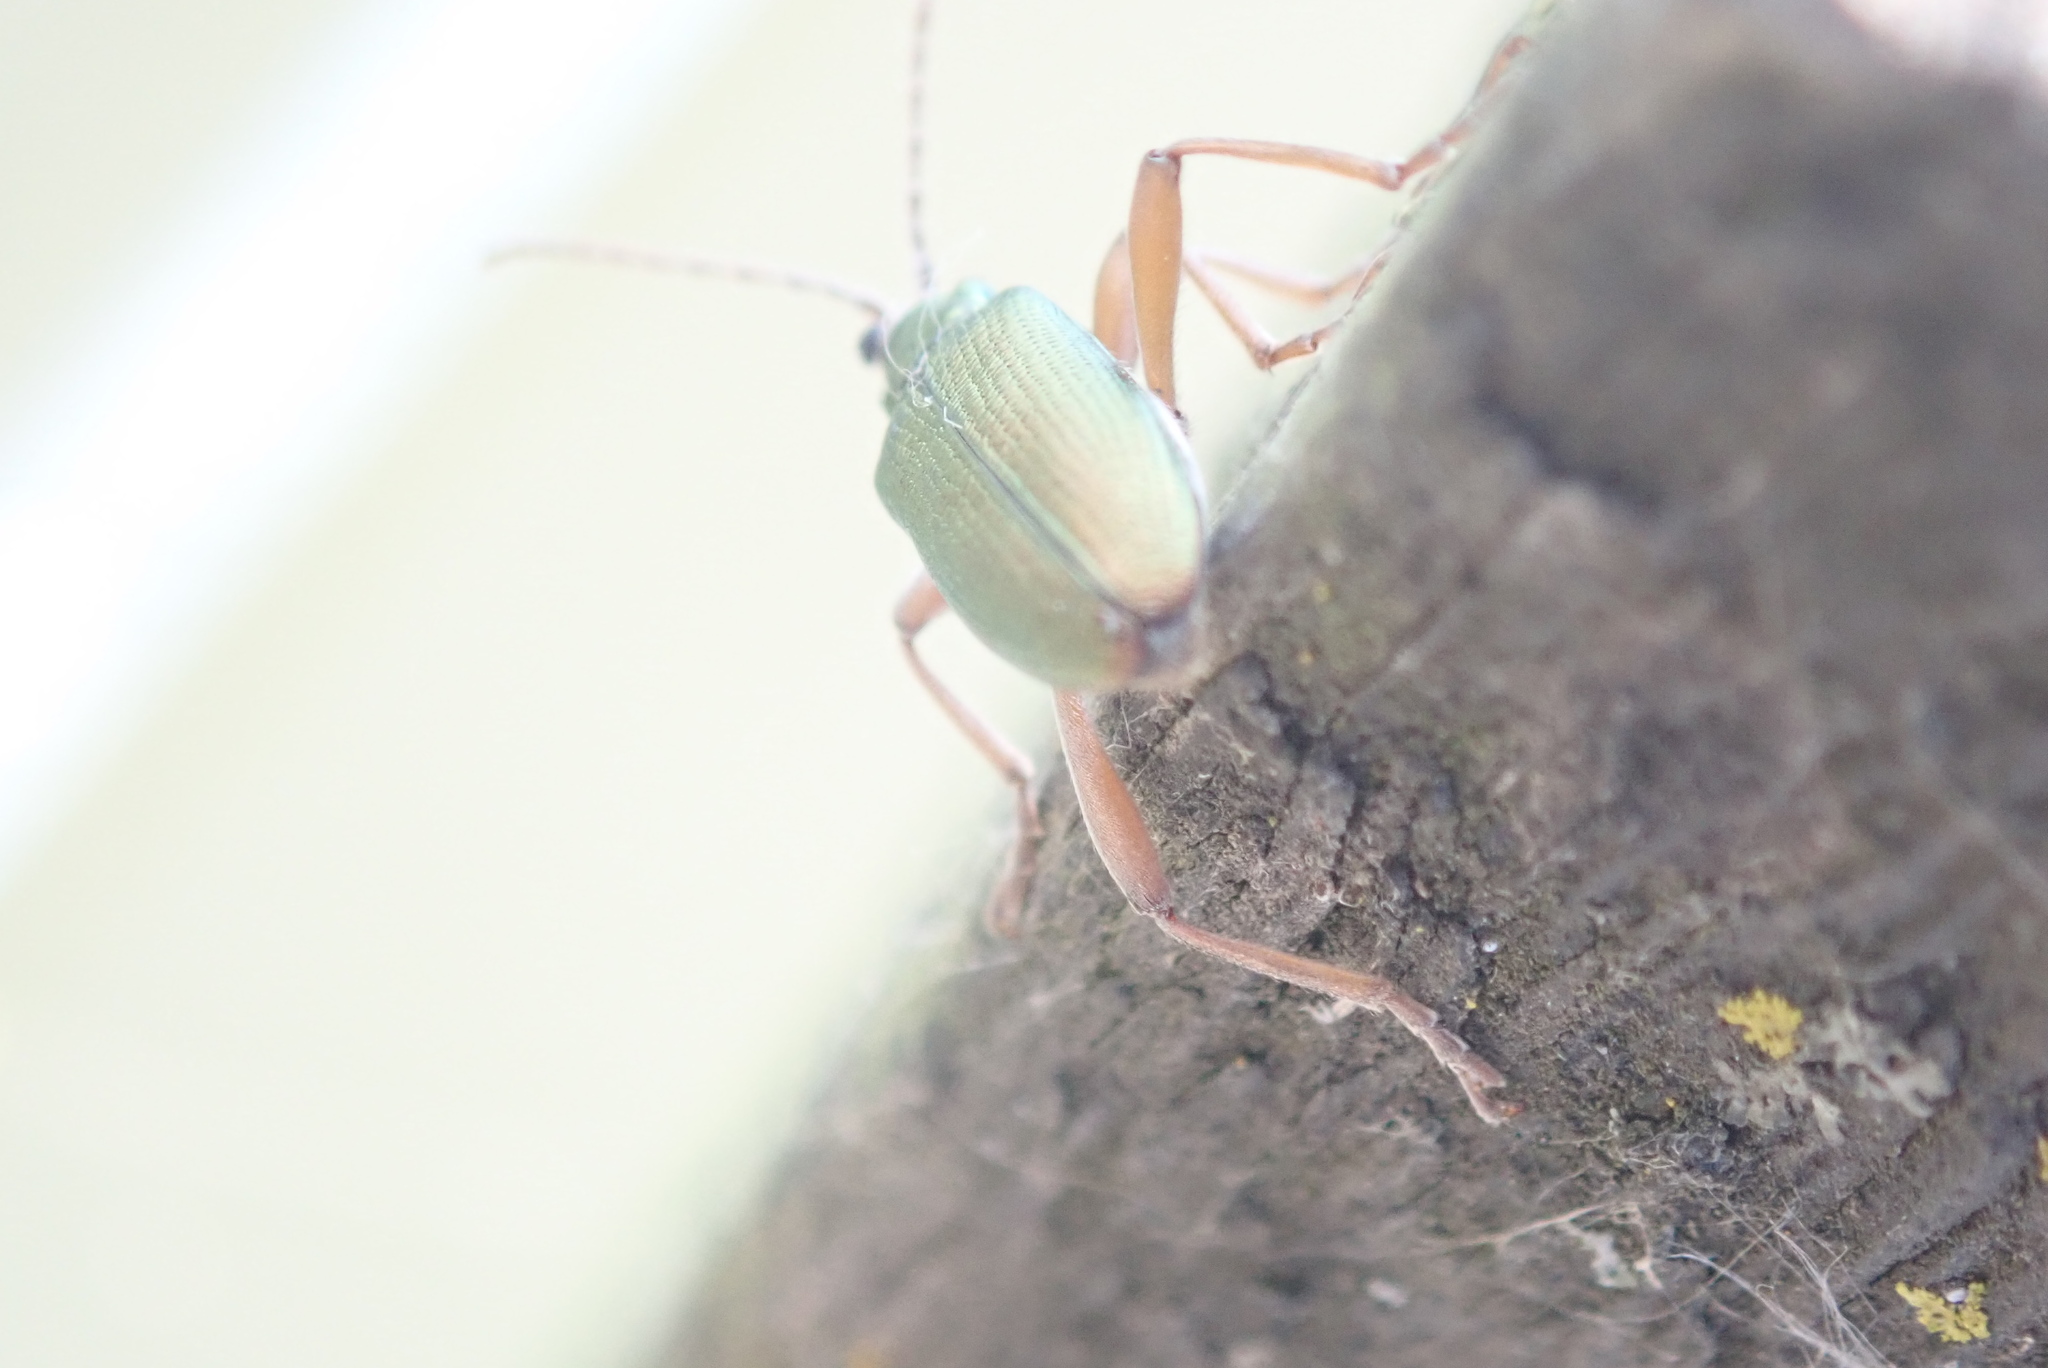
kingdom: Animalia
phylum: Arthropoda
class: Insecta
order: Coleoptera
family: Chrysomelidae
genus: Donacia
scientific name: Donacia clavipes
